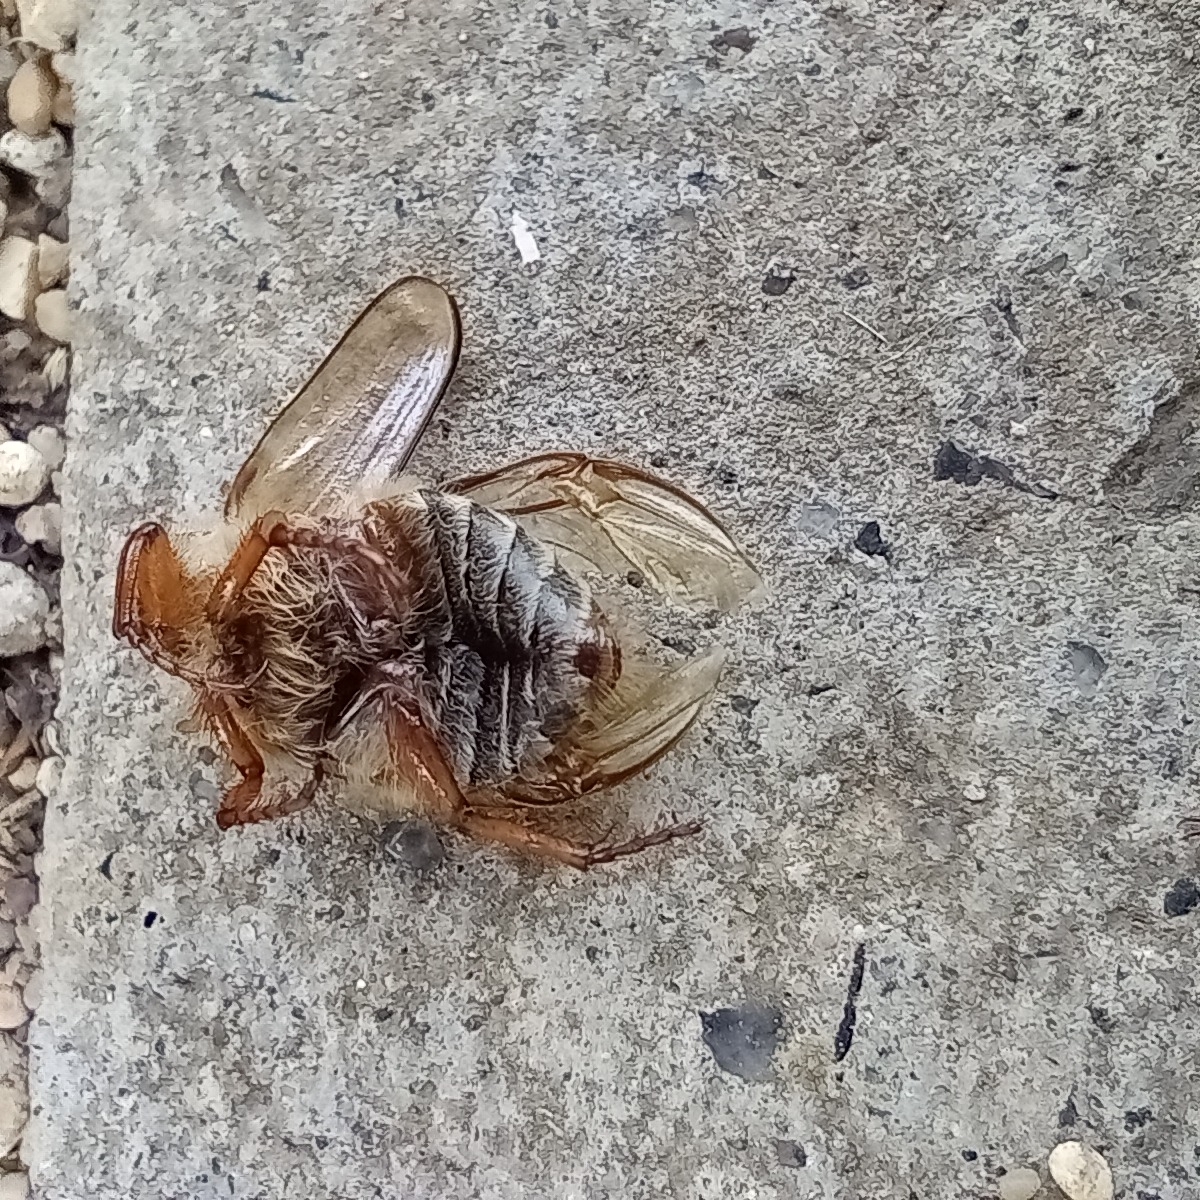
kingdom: Animalia
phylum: Arthropoda
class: Insecta
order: Coleoptera
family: Scarabaeidae
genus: Amphimallon
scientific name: Amphimallon solstitiale
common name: Summer chafer
